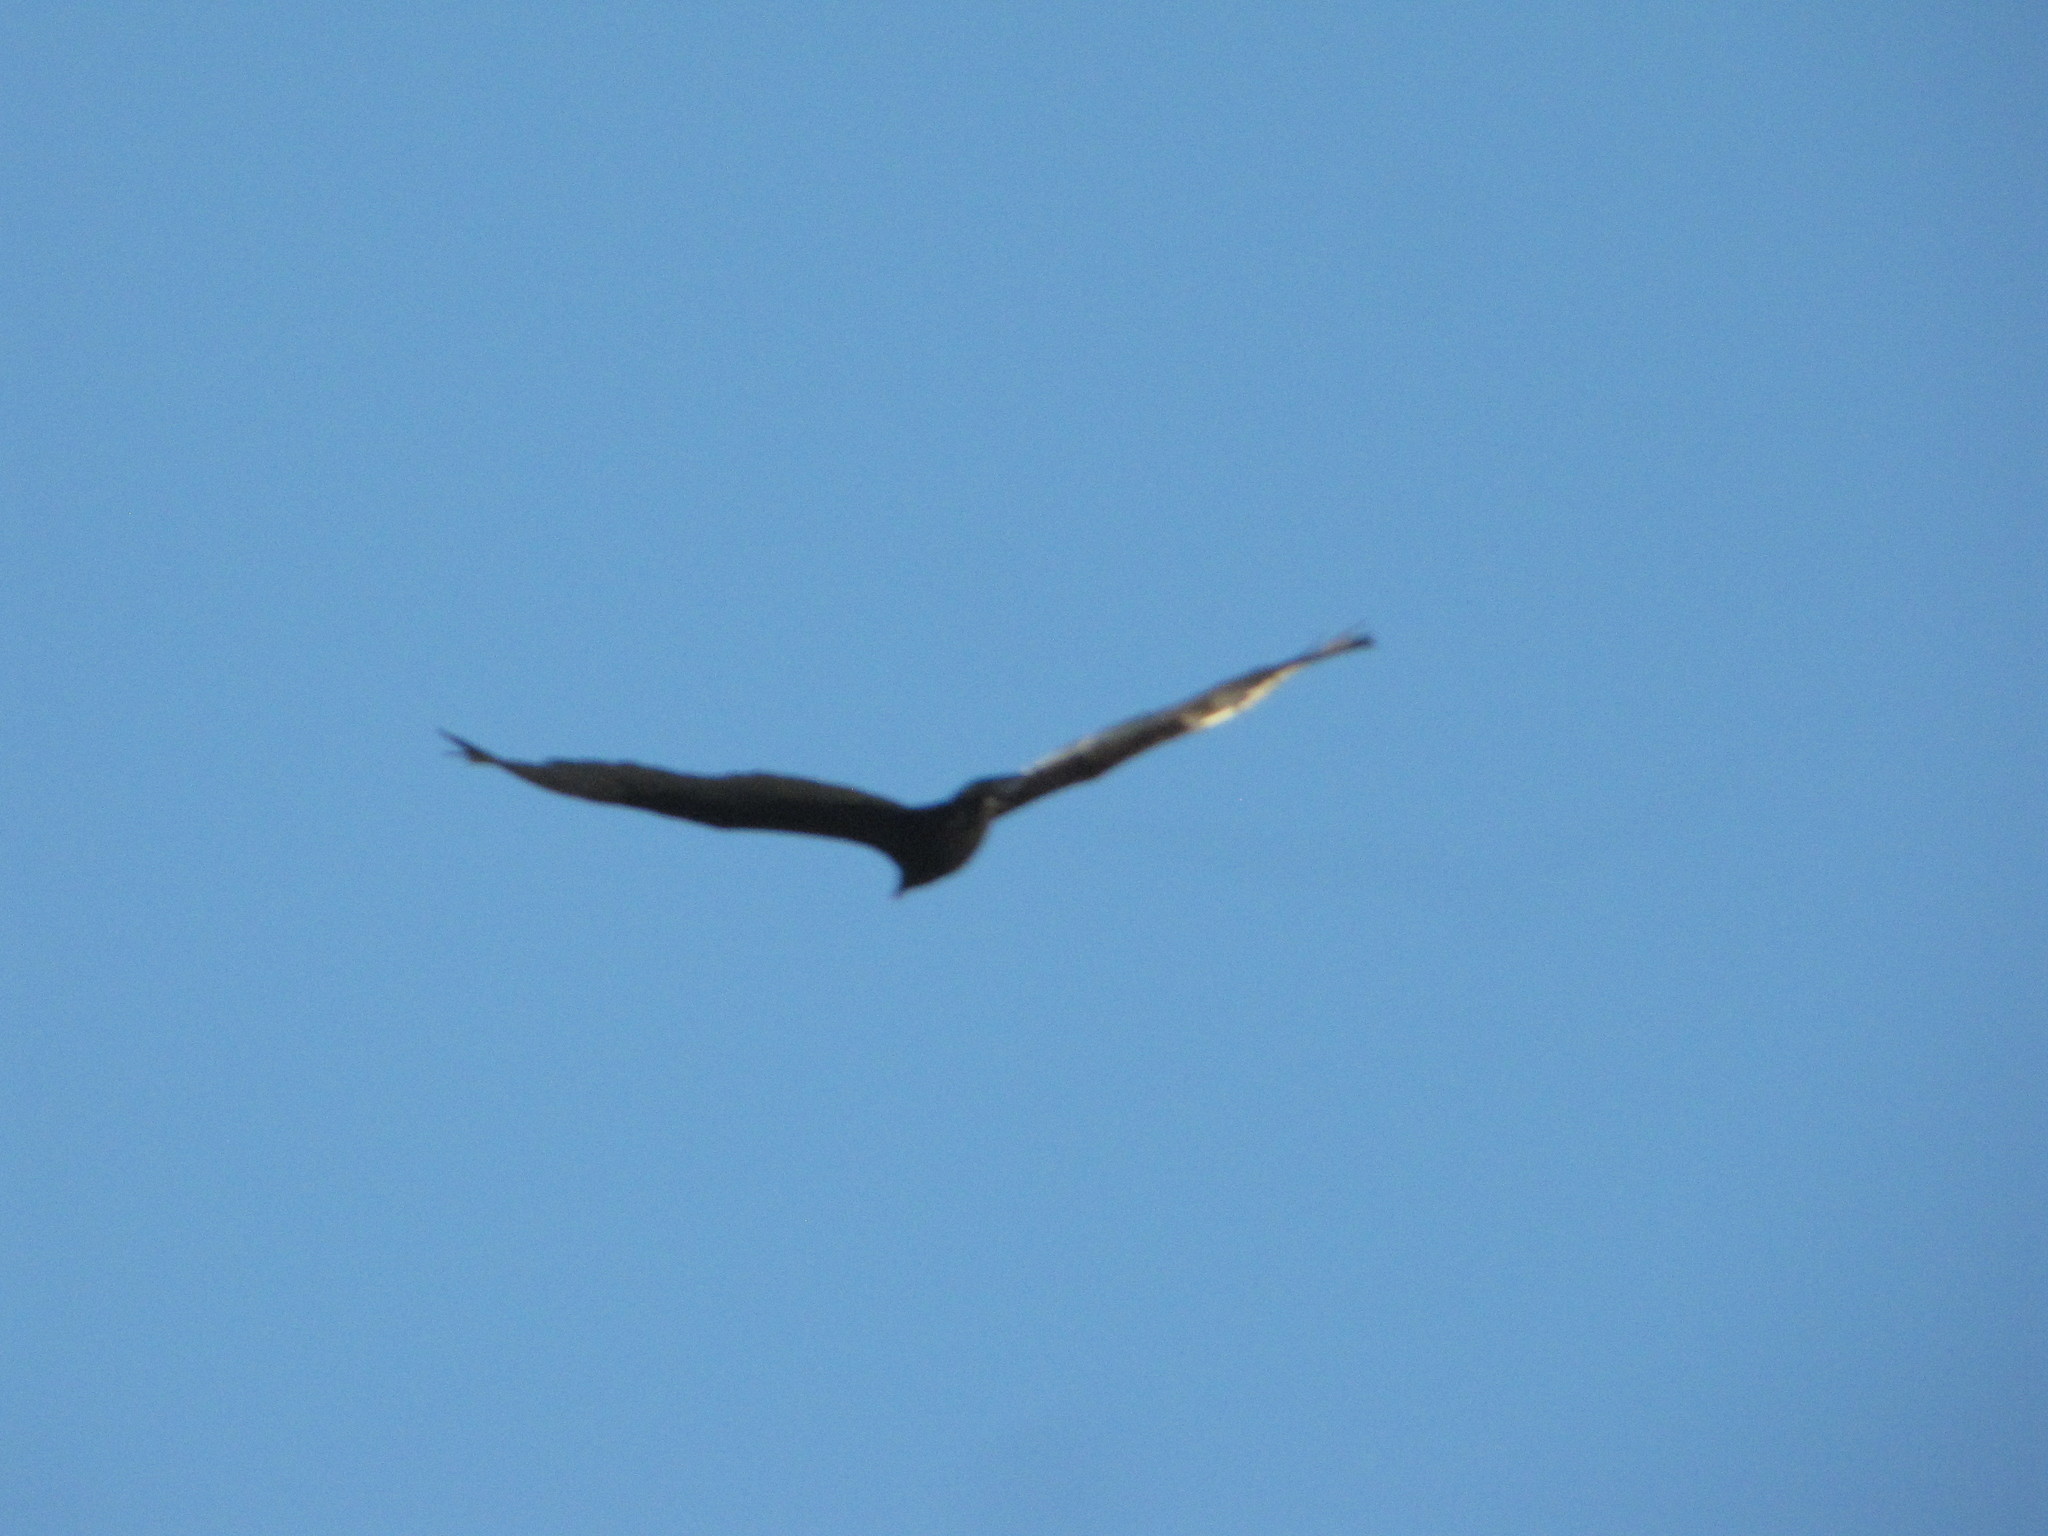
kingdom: Animalia
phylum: Chordata
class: Aves
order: Accipitriformes
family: Cathartidae
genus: Cathartes
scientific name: Cathartes aura
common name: Turkey vulture
